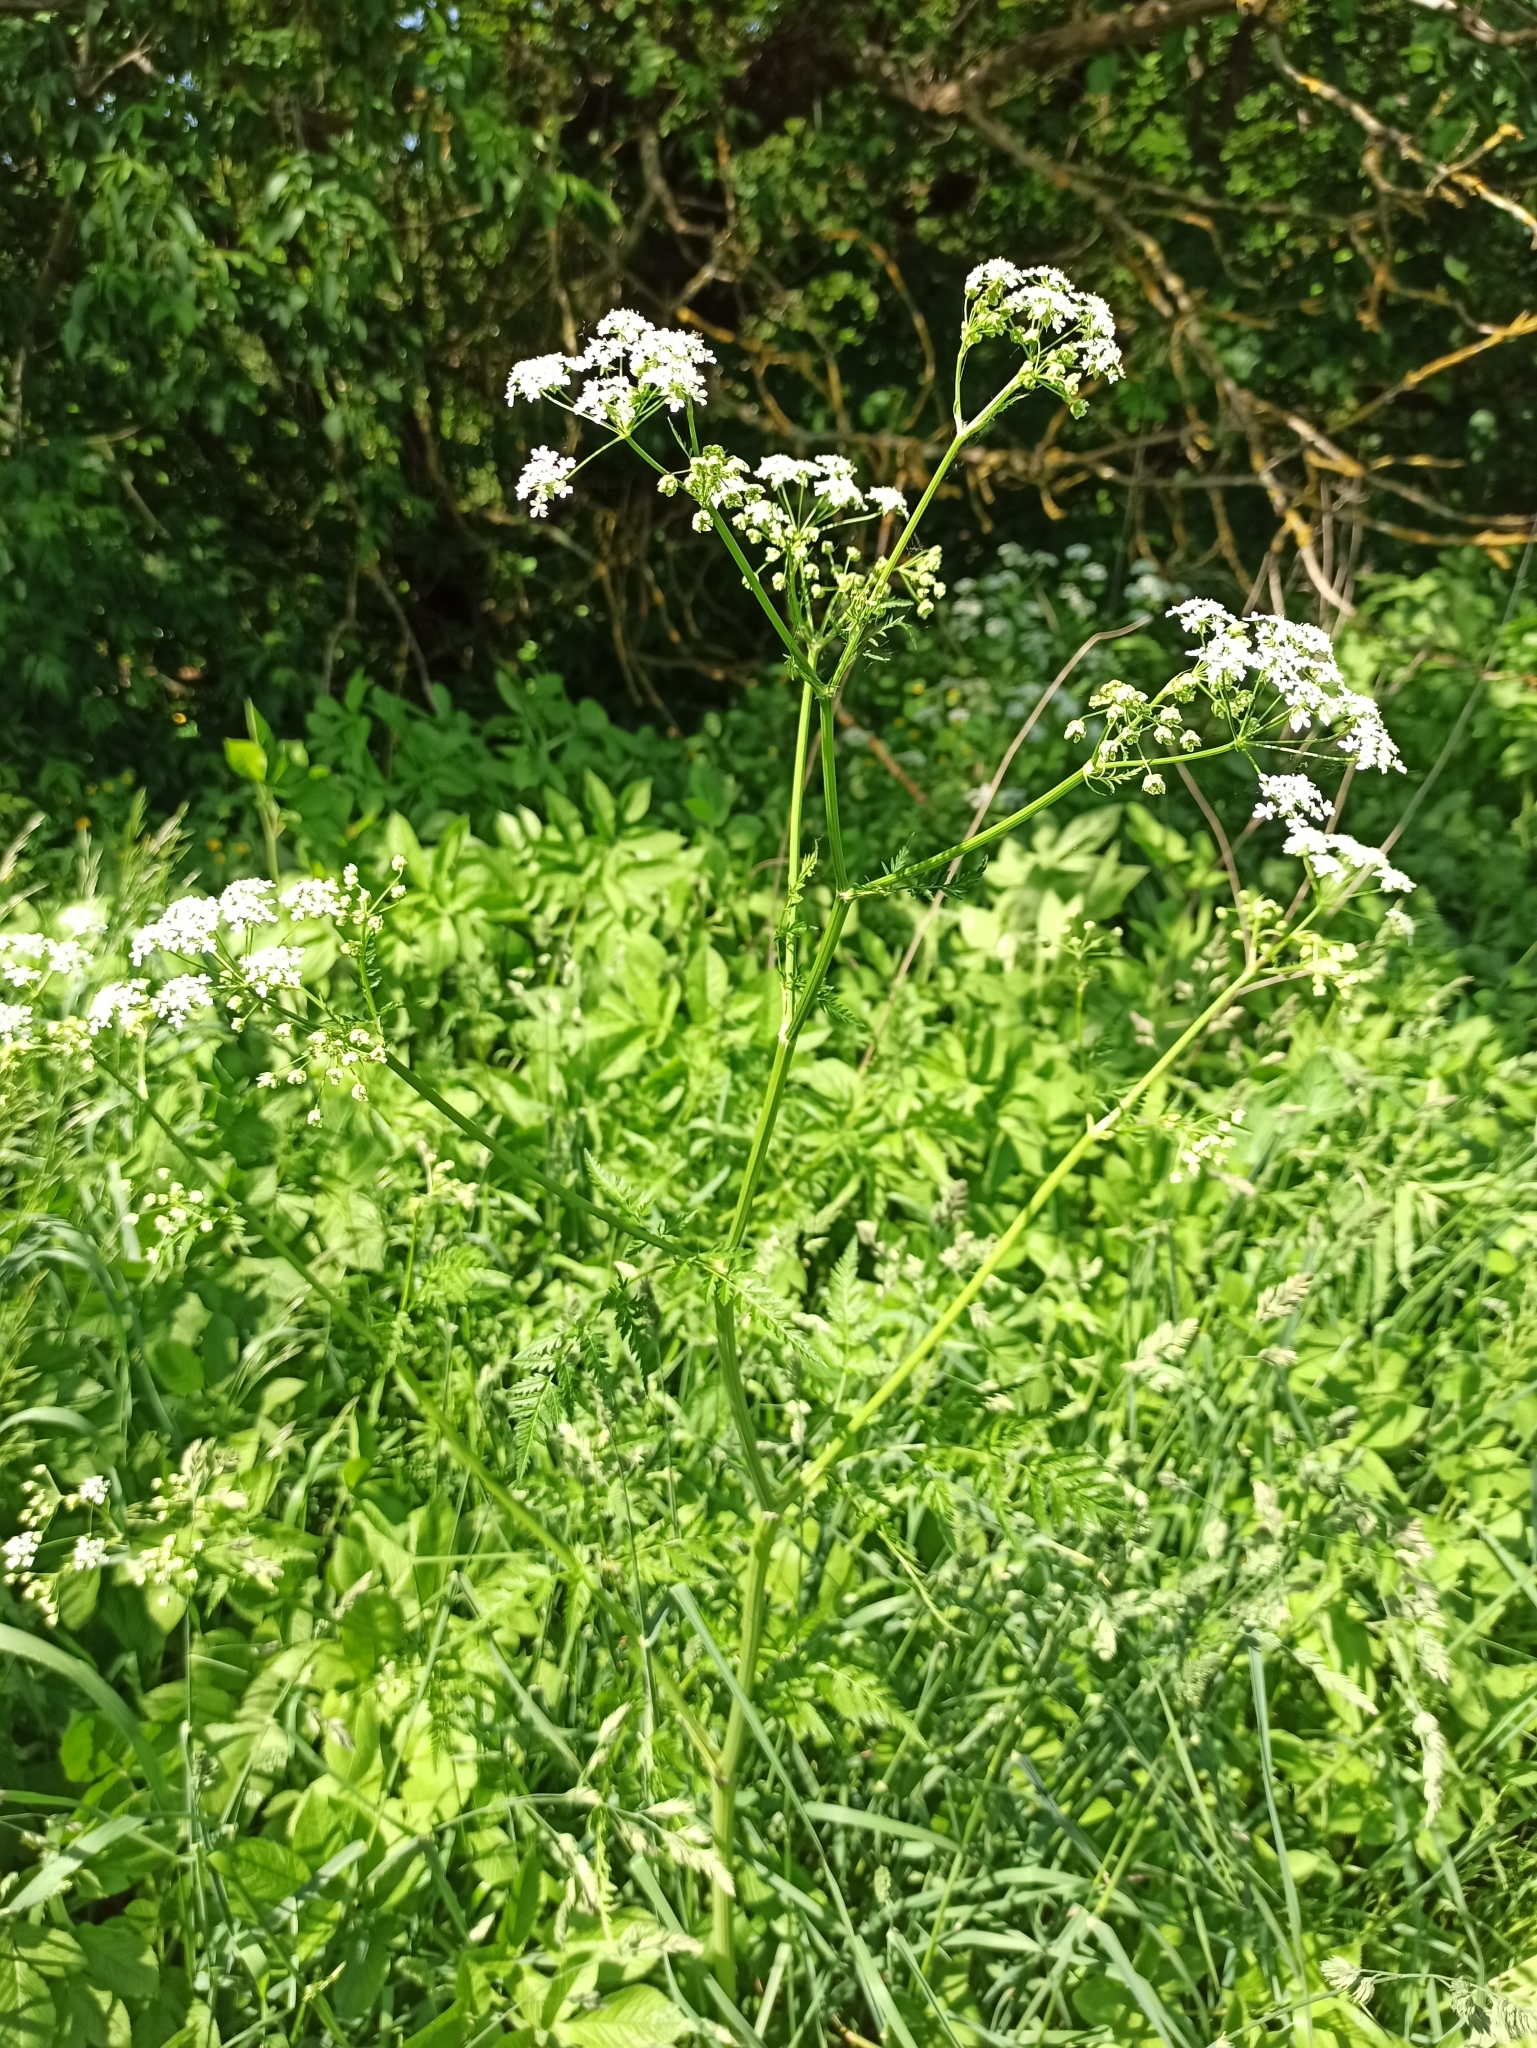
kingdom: Plantae
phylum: Tracheophyta
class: Magnoliopsida
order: Apiales
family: Apiaceae
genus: Anthriscus
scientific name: Anthriscus sylvestris
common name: Cow parsley
